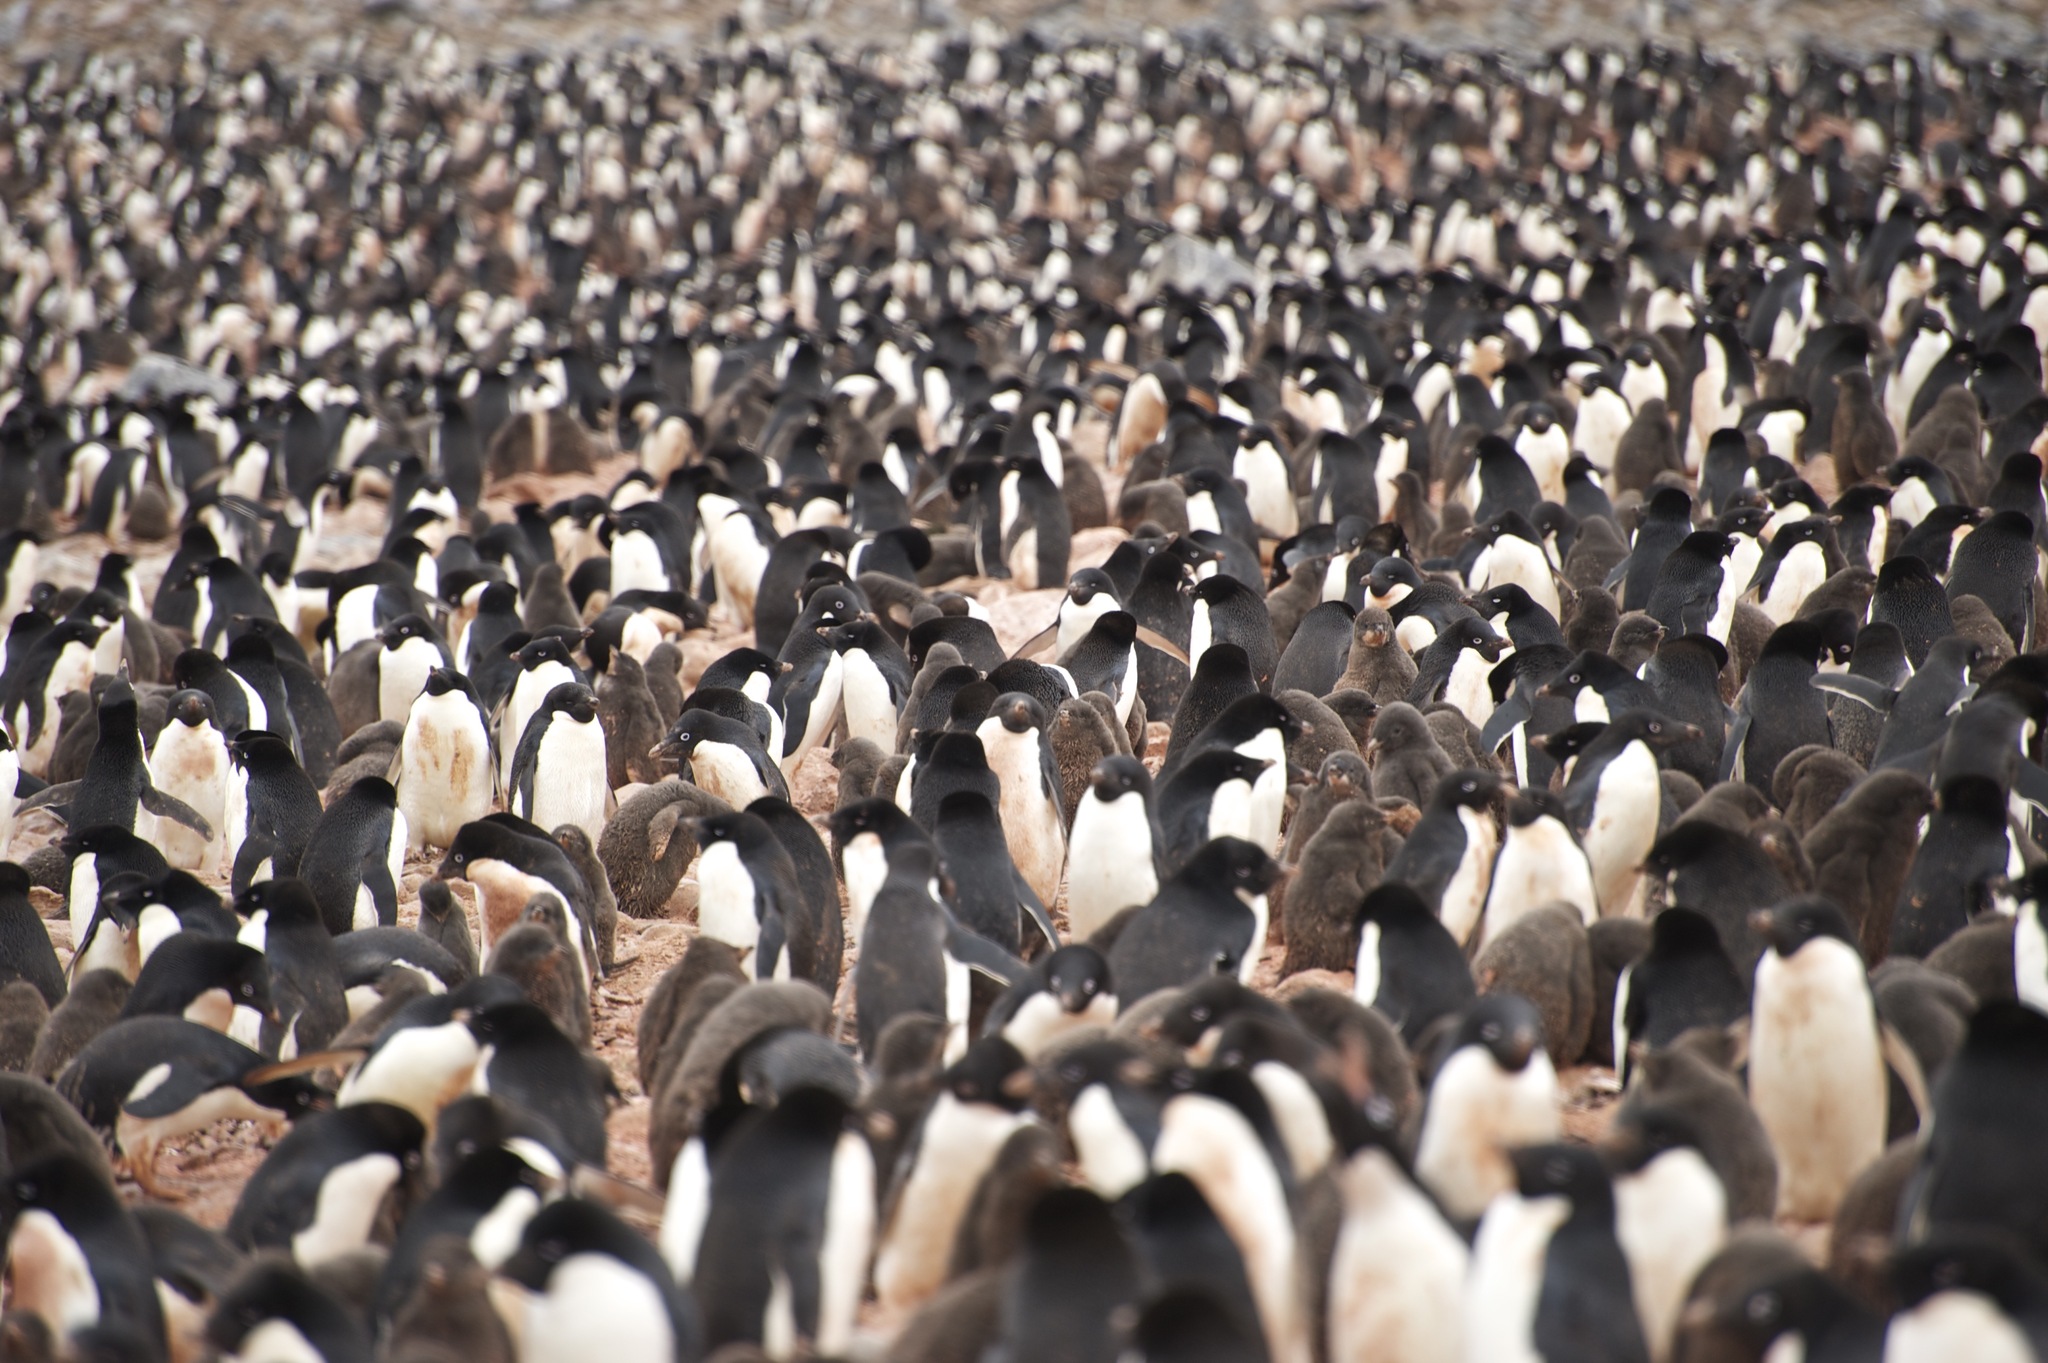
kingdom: Animalia
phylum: Chordata
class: Aves
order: Sphenisciformes
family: Spheniscidae
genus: Pygoscelis
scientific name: Pygoscelis adeliae
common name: Adelie penguin
